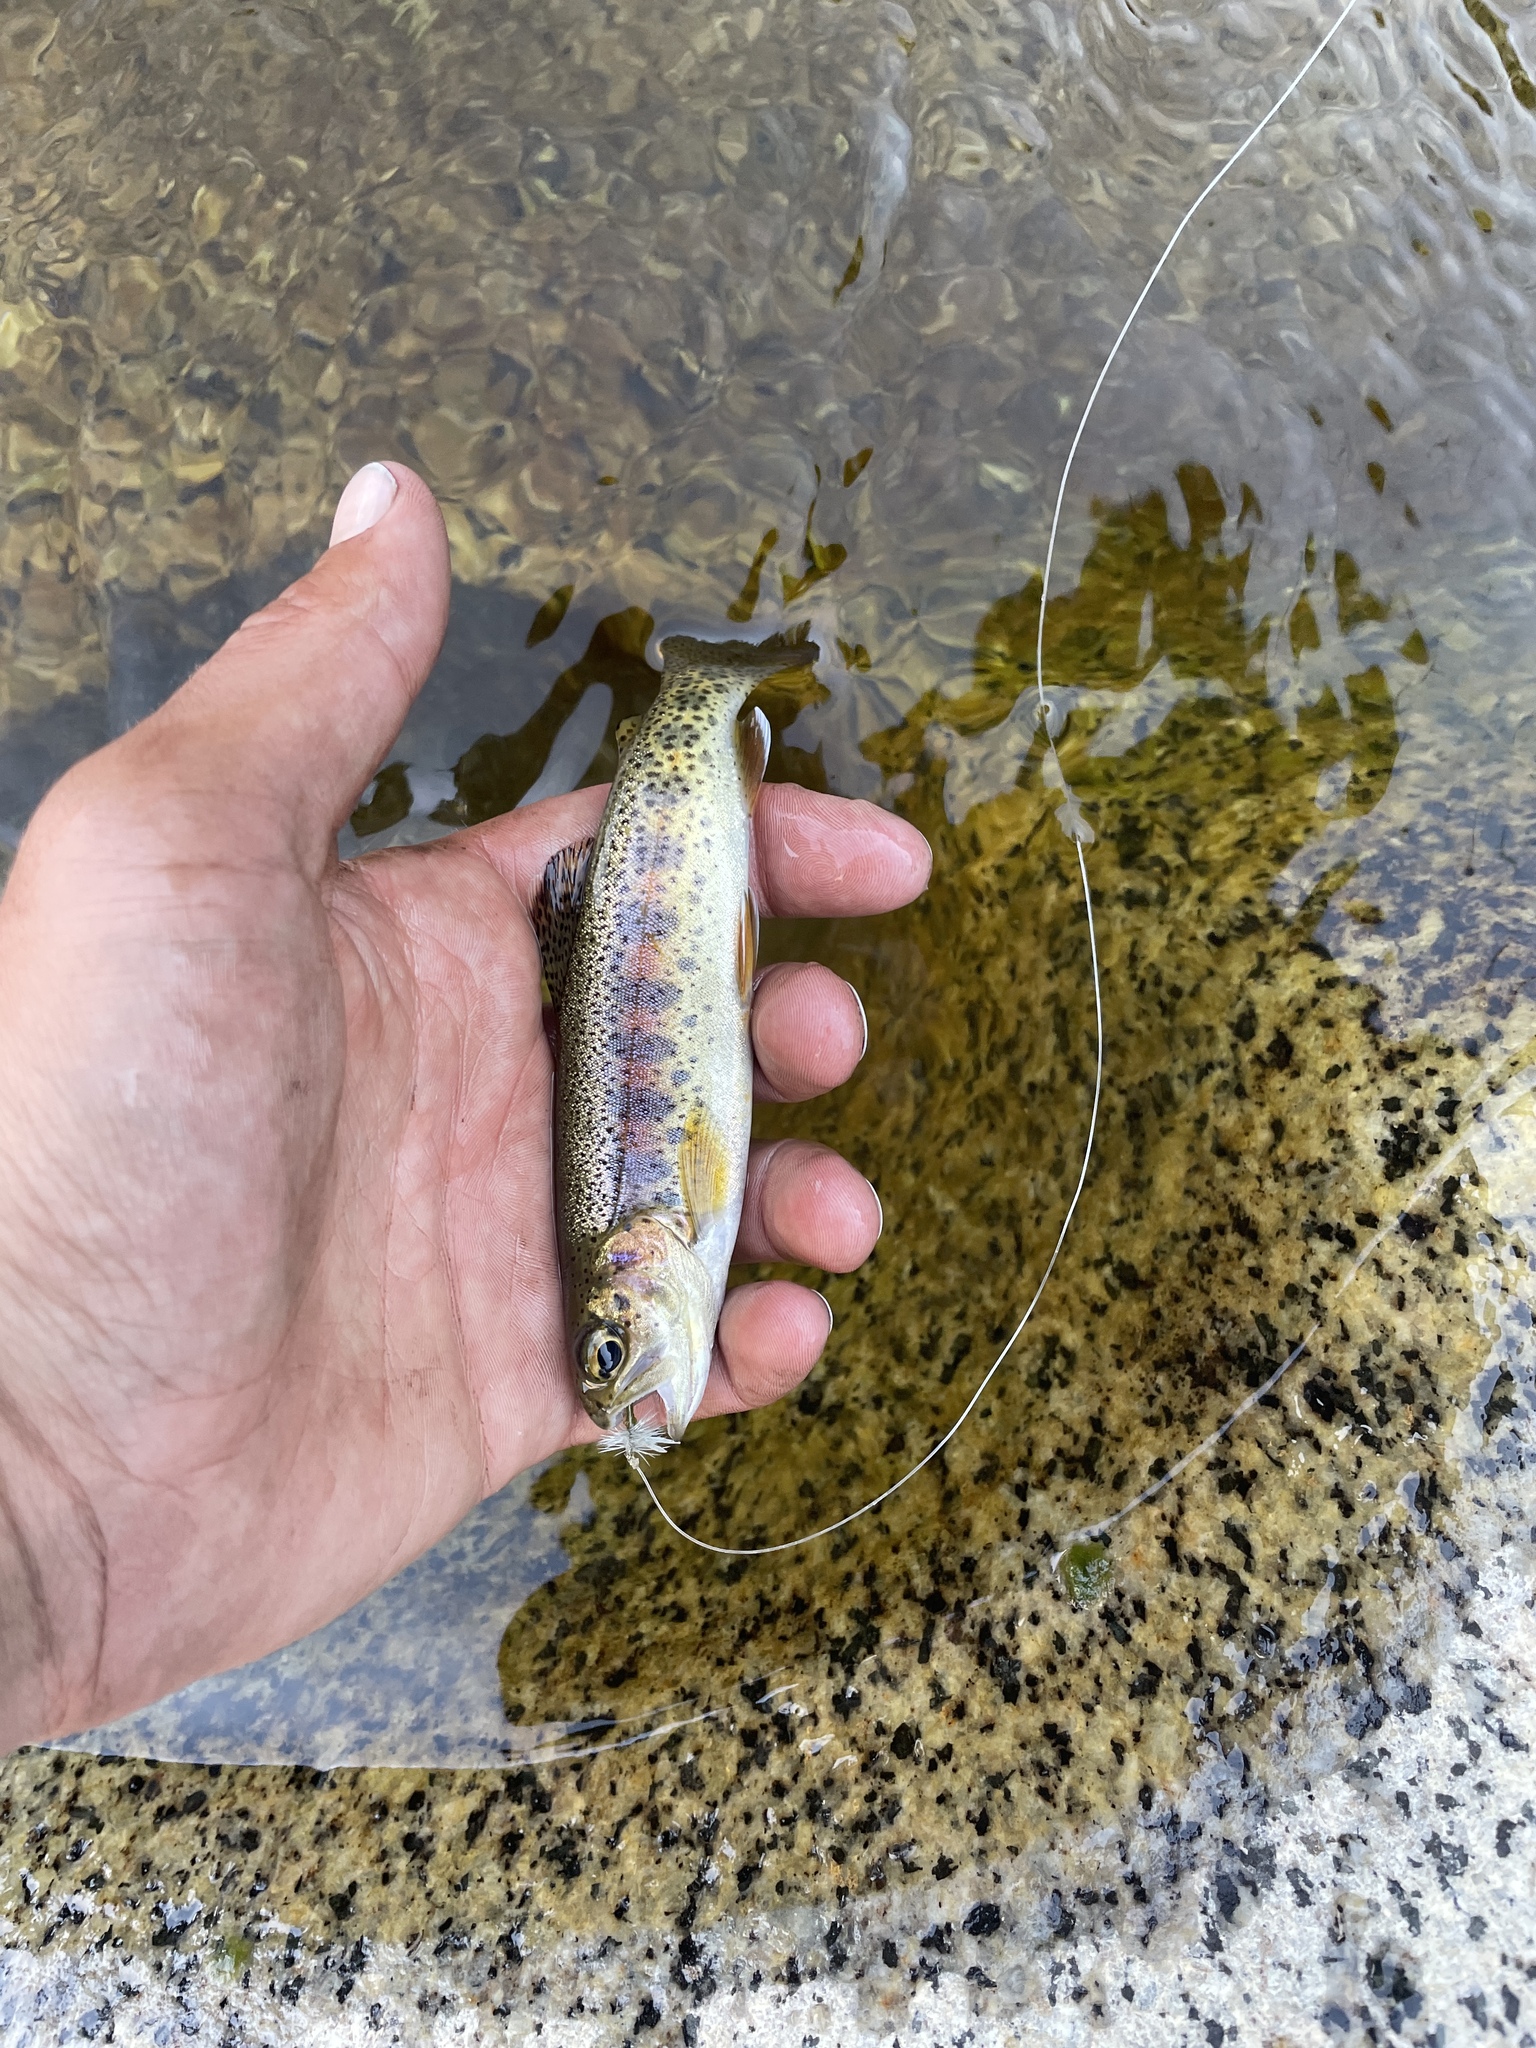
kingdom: Animalia
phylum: Chordata
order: Salmoniformes
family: Salmonidae
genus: Oncorhynchus
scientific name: Oncorhynchus mykiss
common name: Rainbow trout
